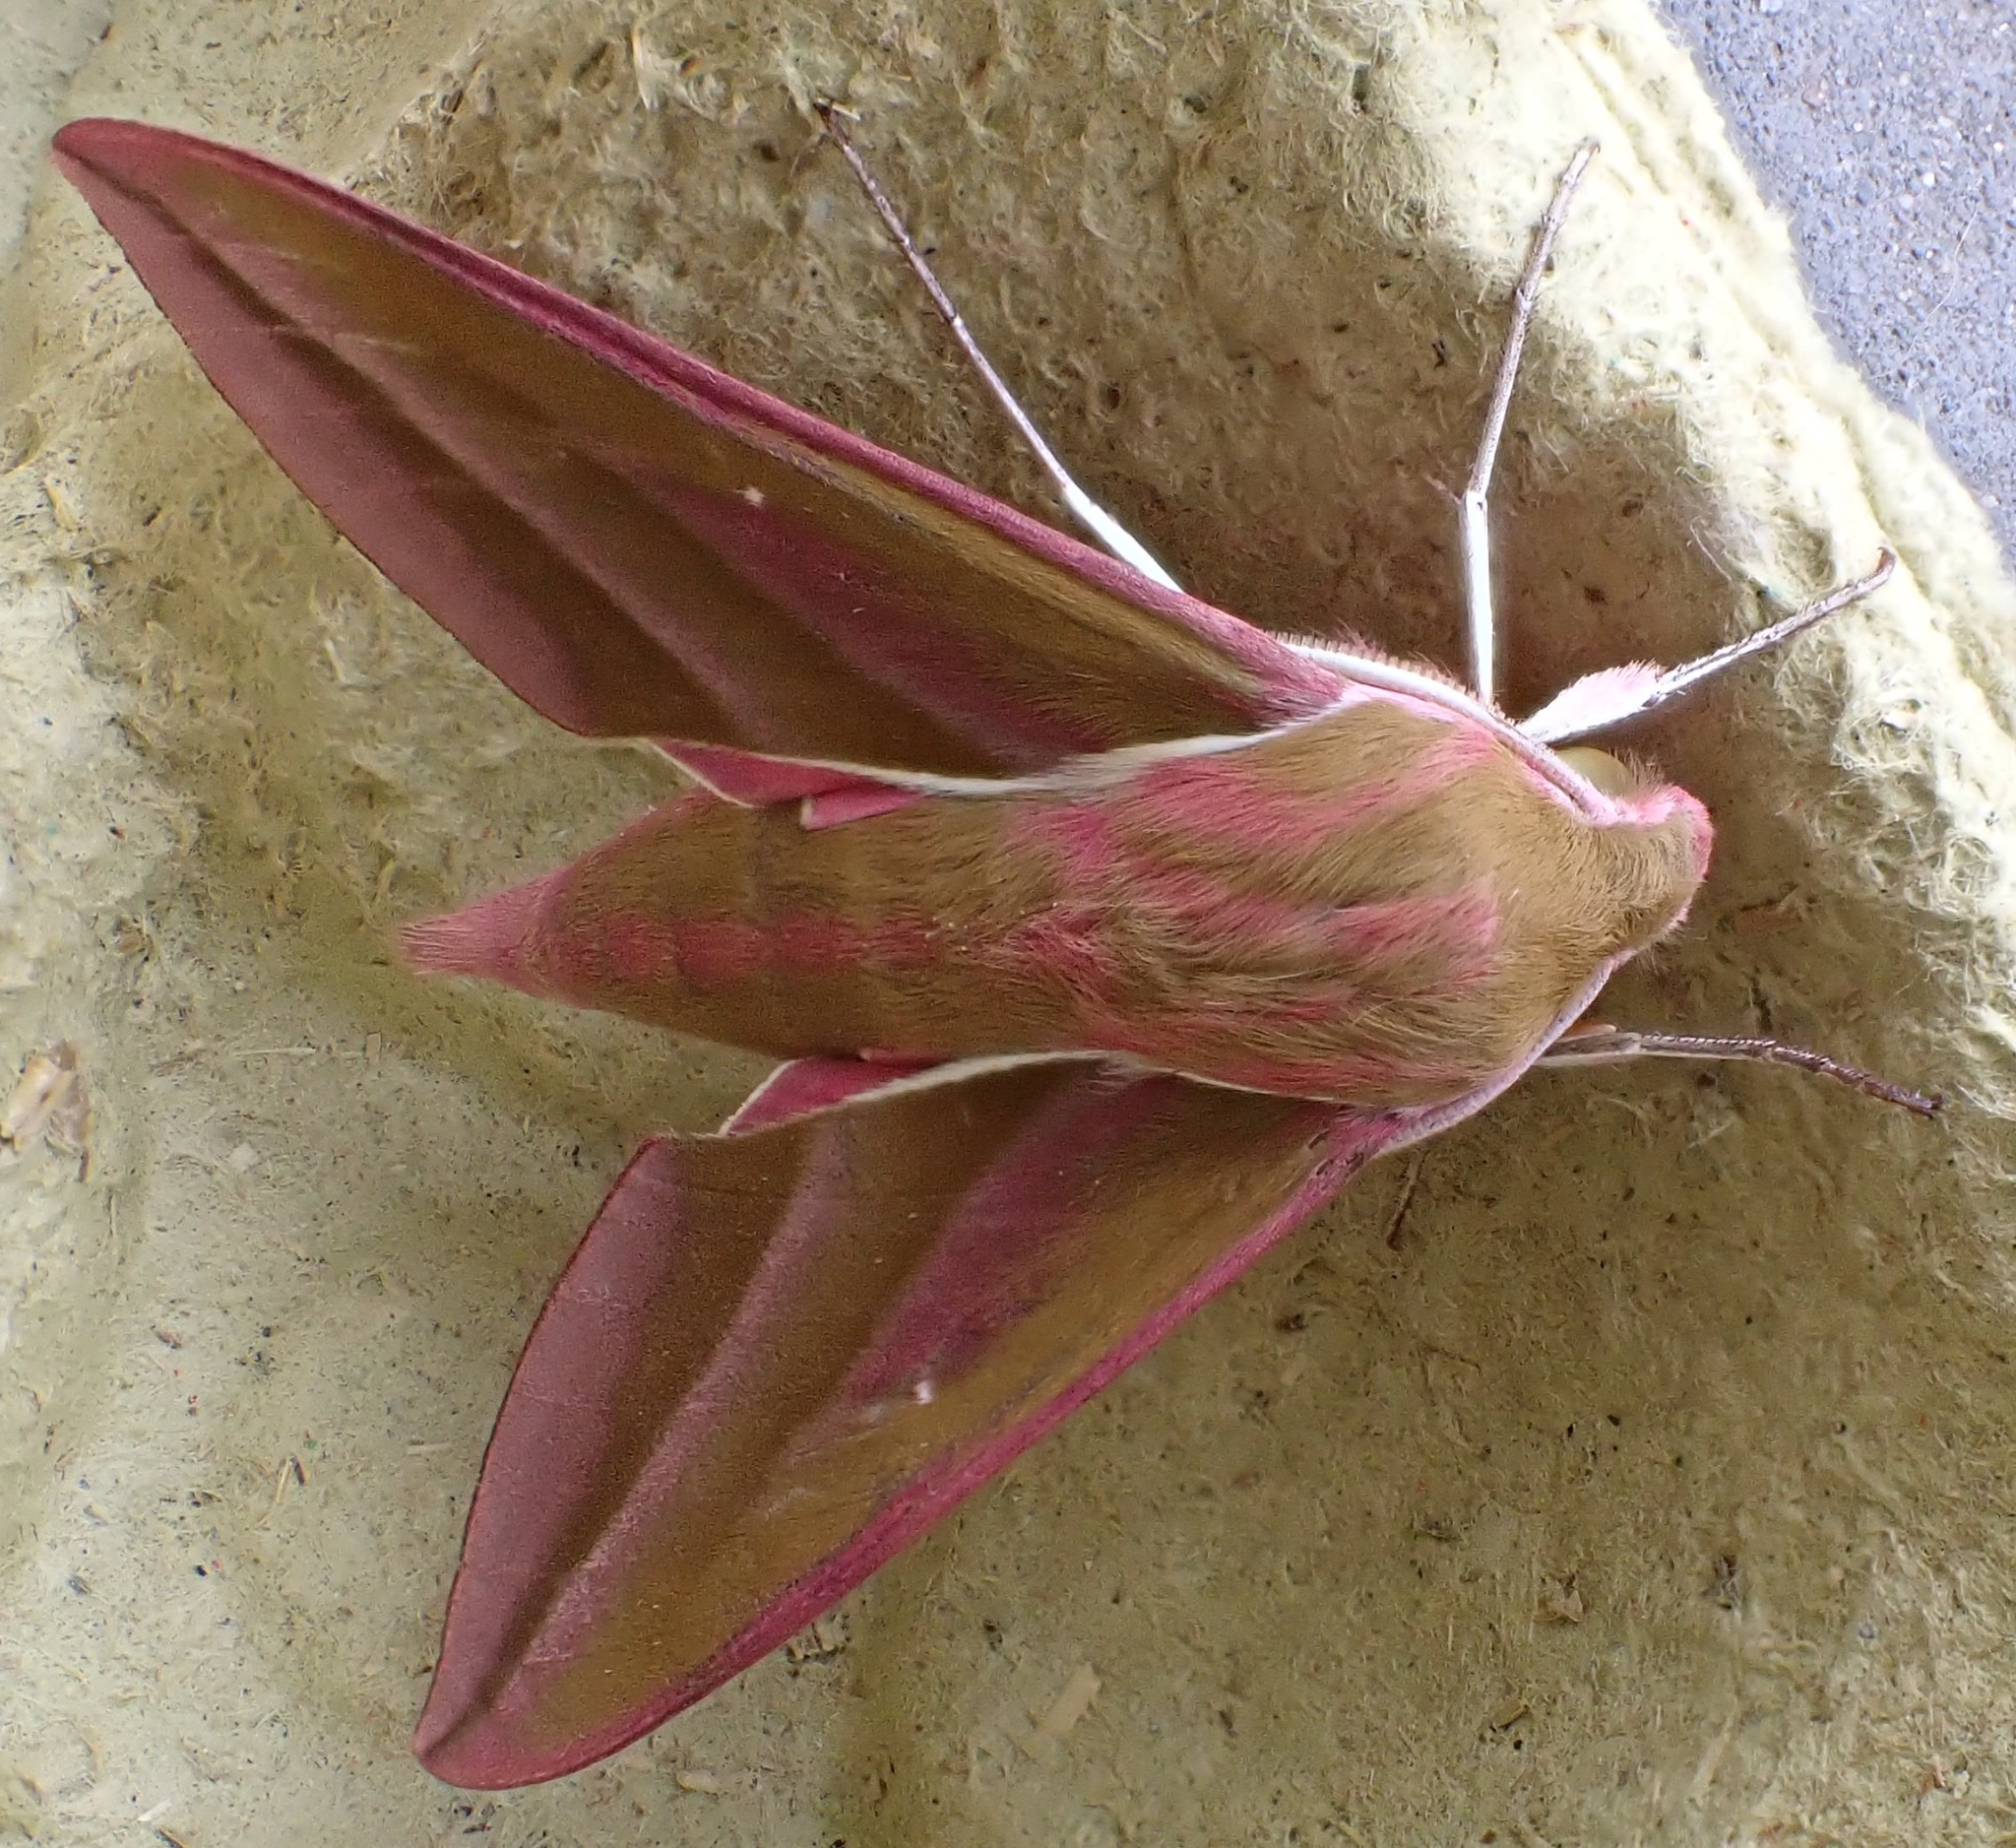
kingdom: Animalia
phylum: Arthropoda
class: Insecta
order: Lepidoptera
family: Sphingidae
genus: Deilephila
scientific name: Deilephila elpenor
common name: Elephant hawk-moth
